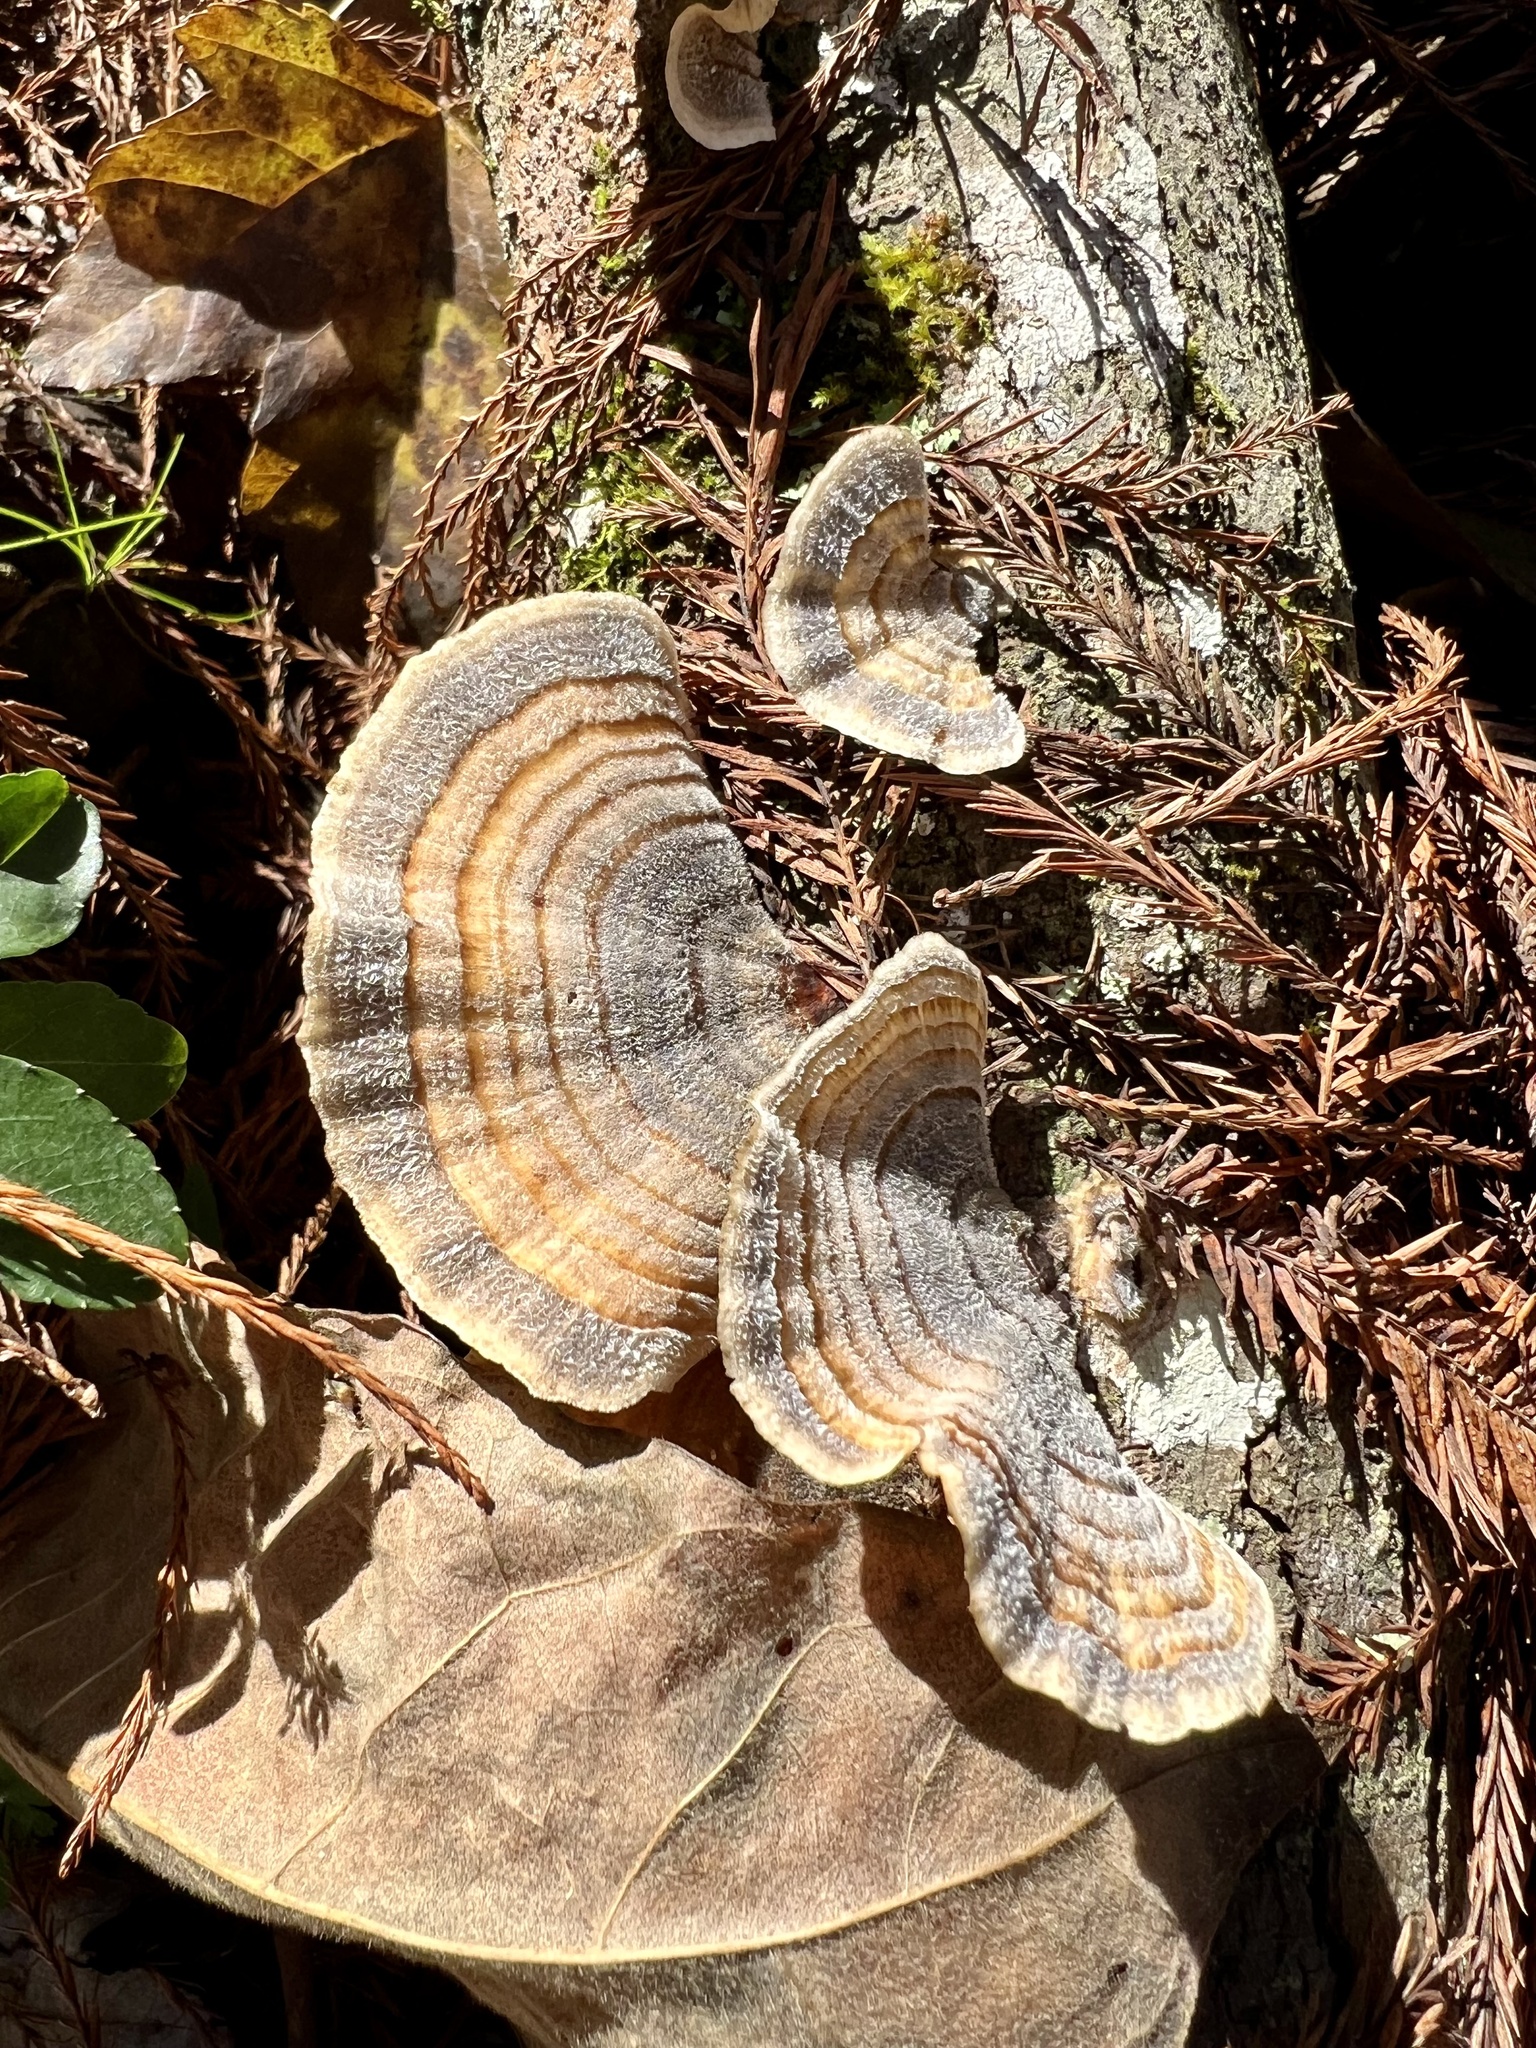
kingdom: Fungi
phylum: Basidiomycota
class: Agaricomycetes
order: Polyporales
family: Polyporaceae
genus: Trametes
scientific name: Trametes versicolor
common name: Turkeytail
